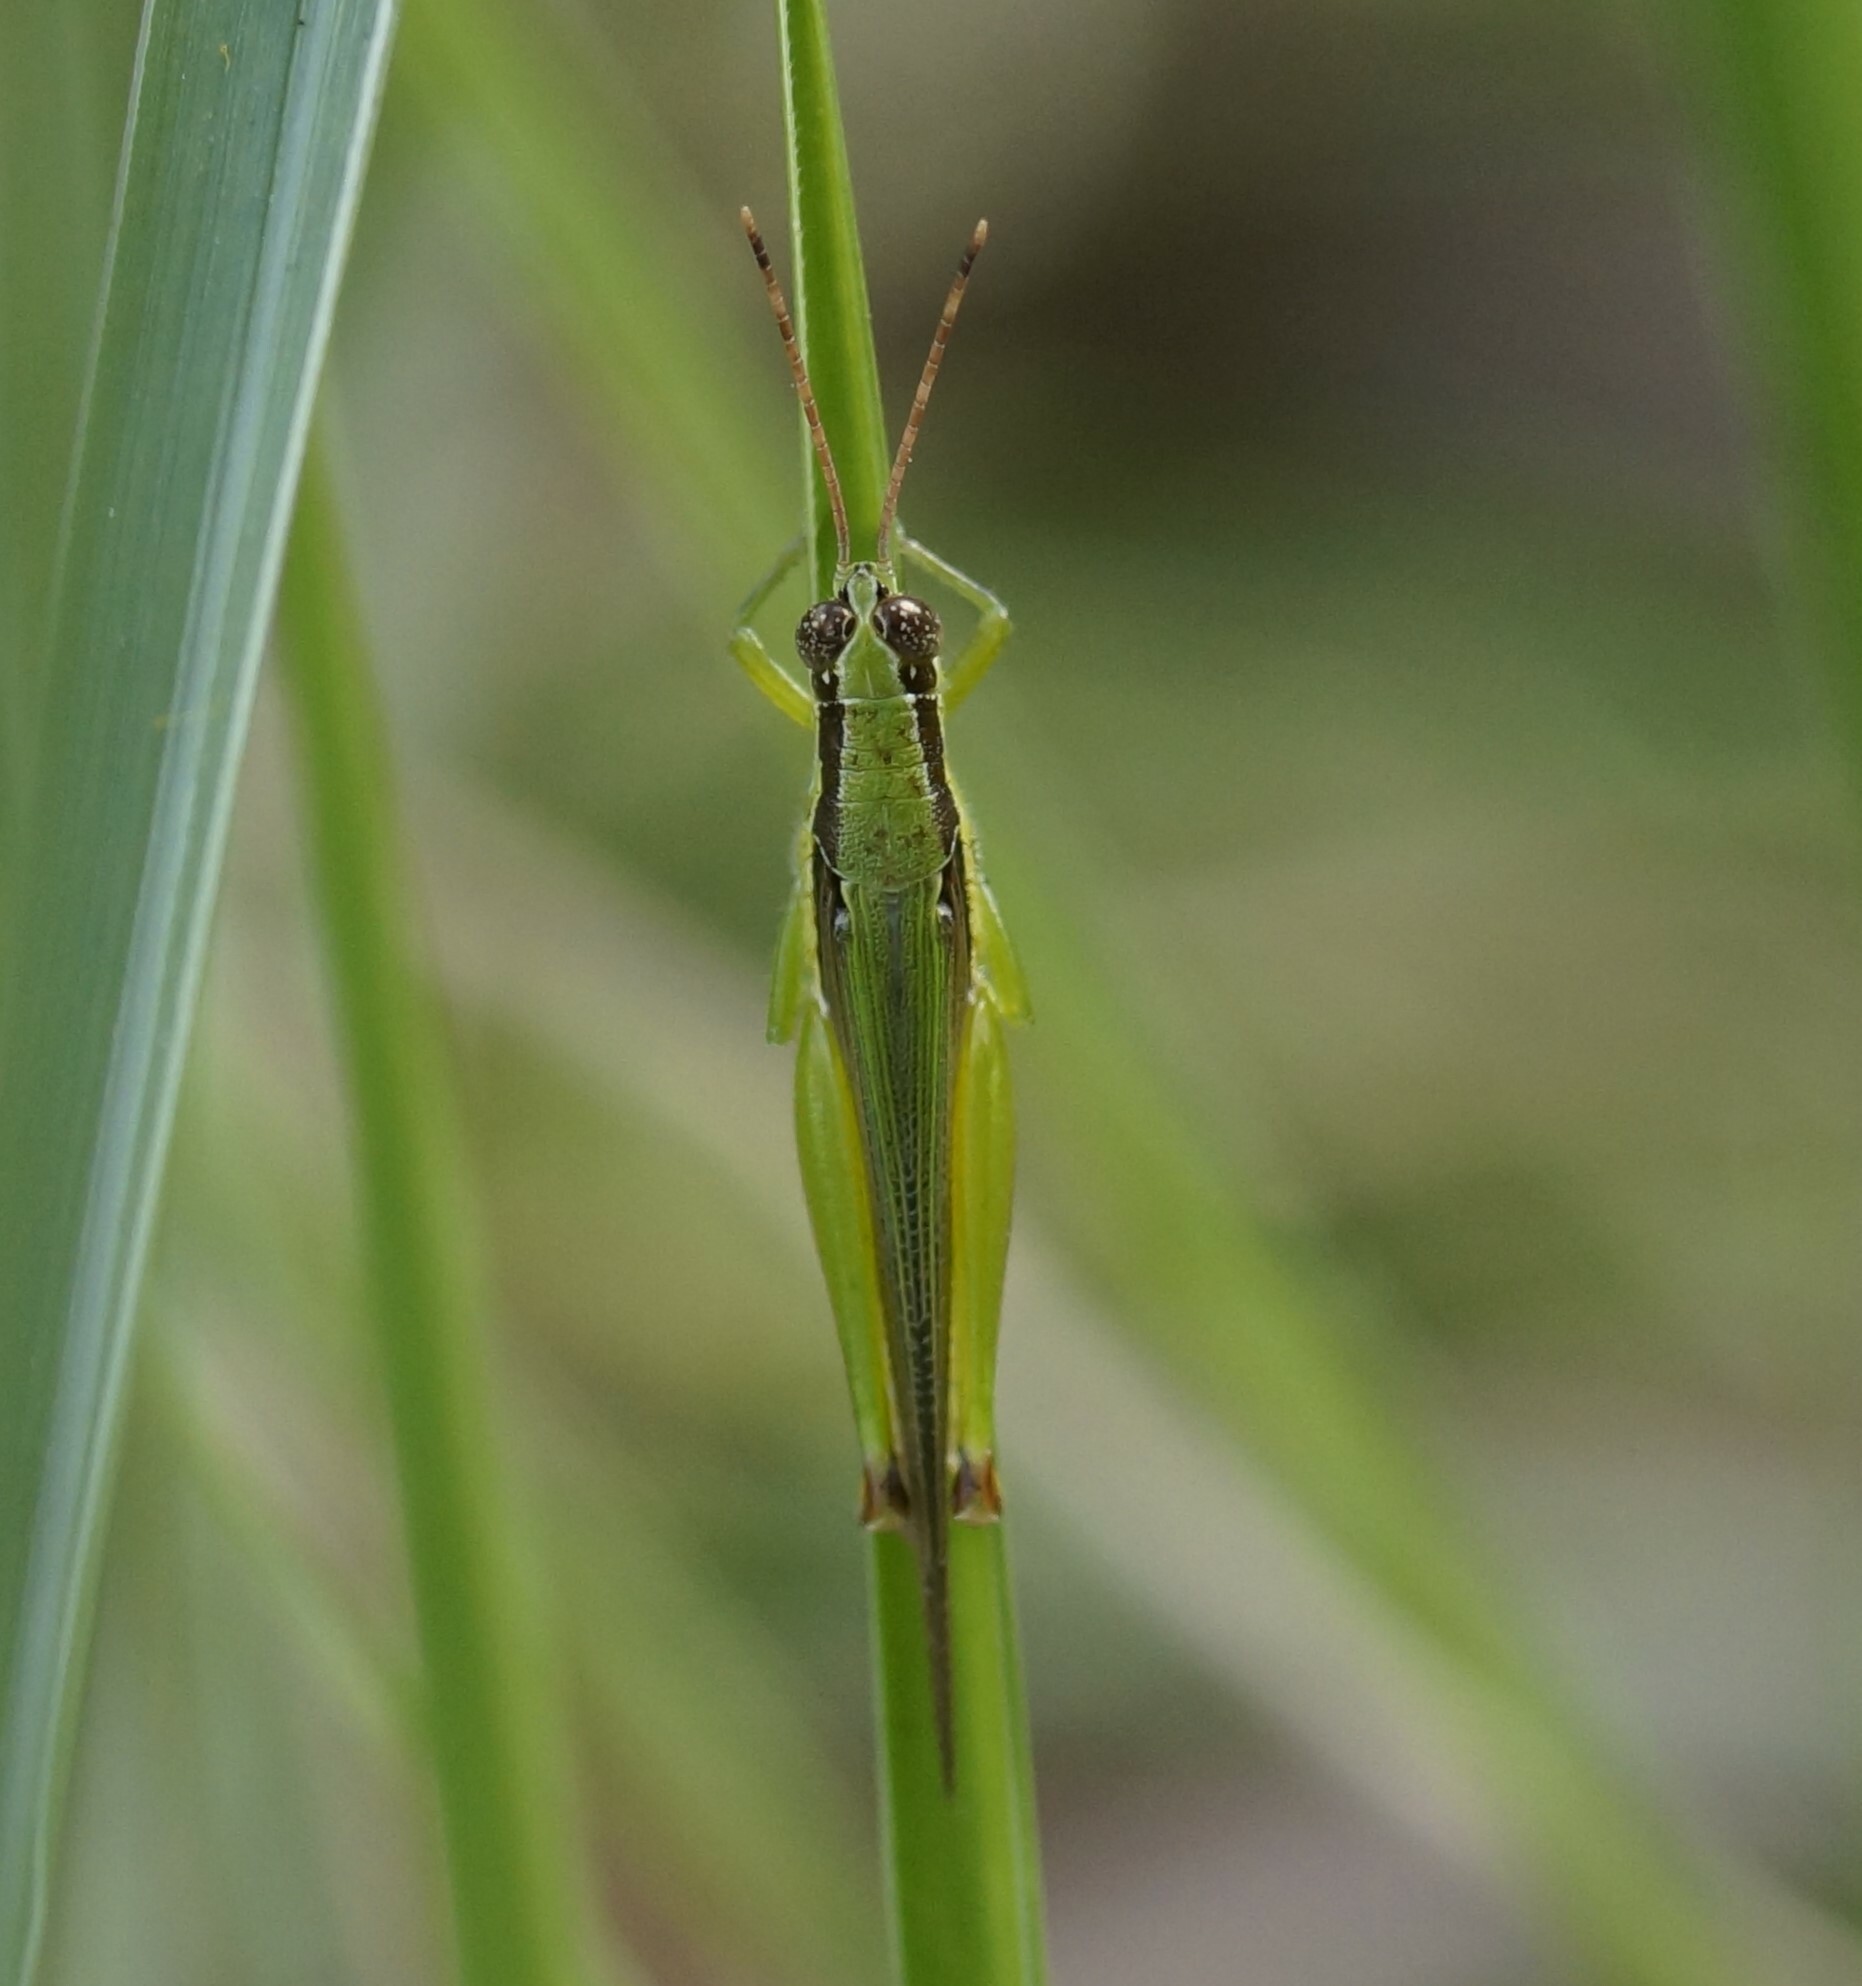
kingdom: Animalia
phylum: Arthropoda
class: Insecta
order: Orthoptera
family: Acrididae
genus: Gesonula
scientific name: Gesonula mundata
